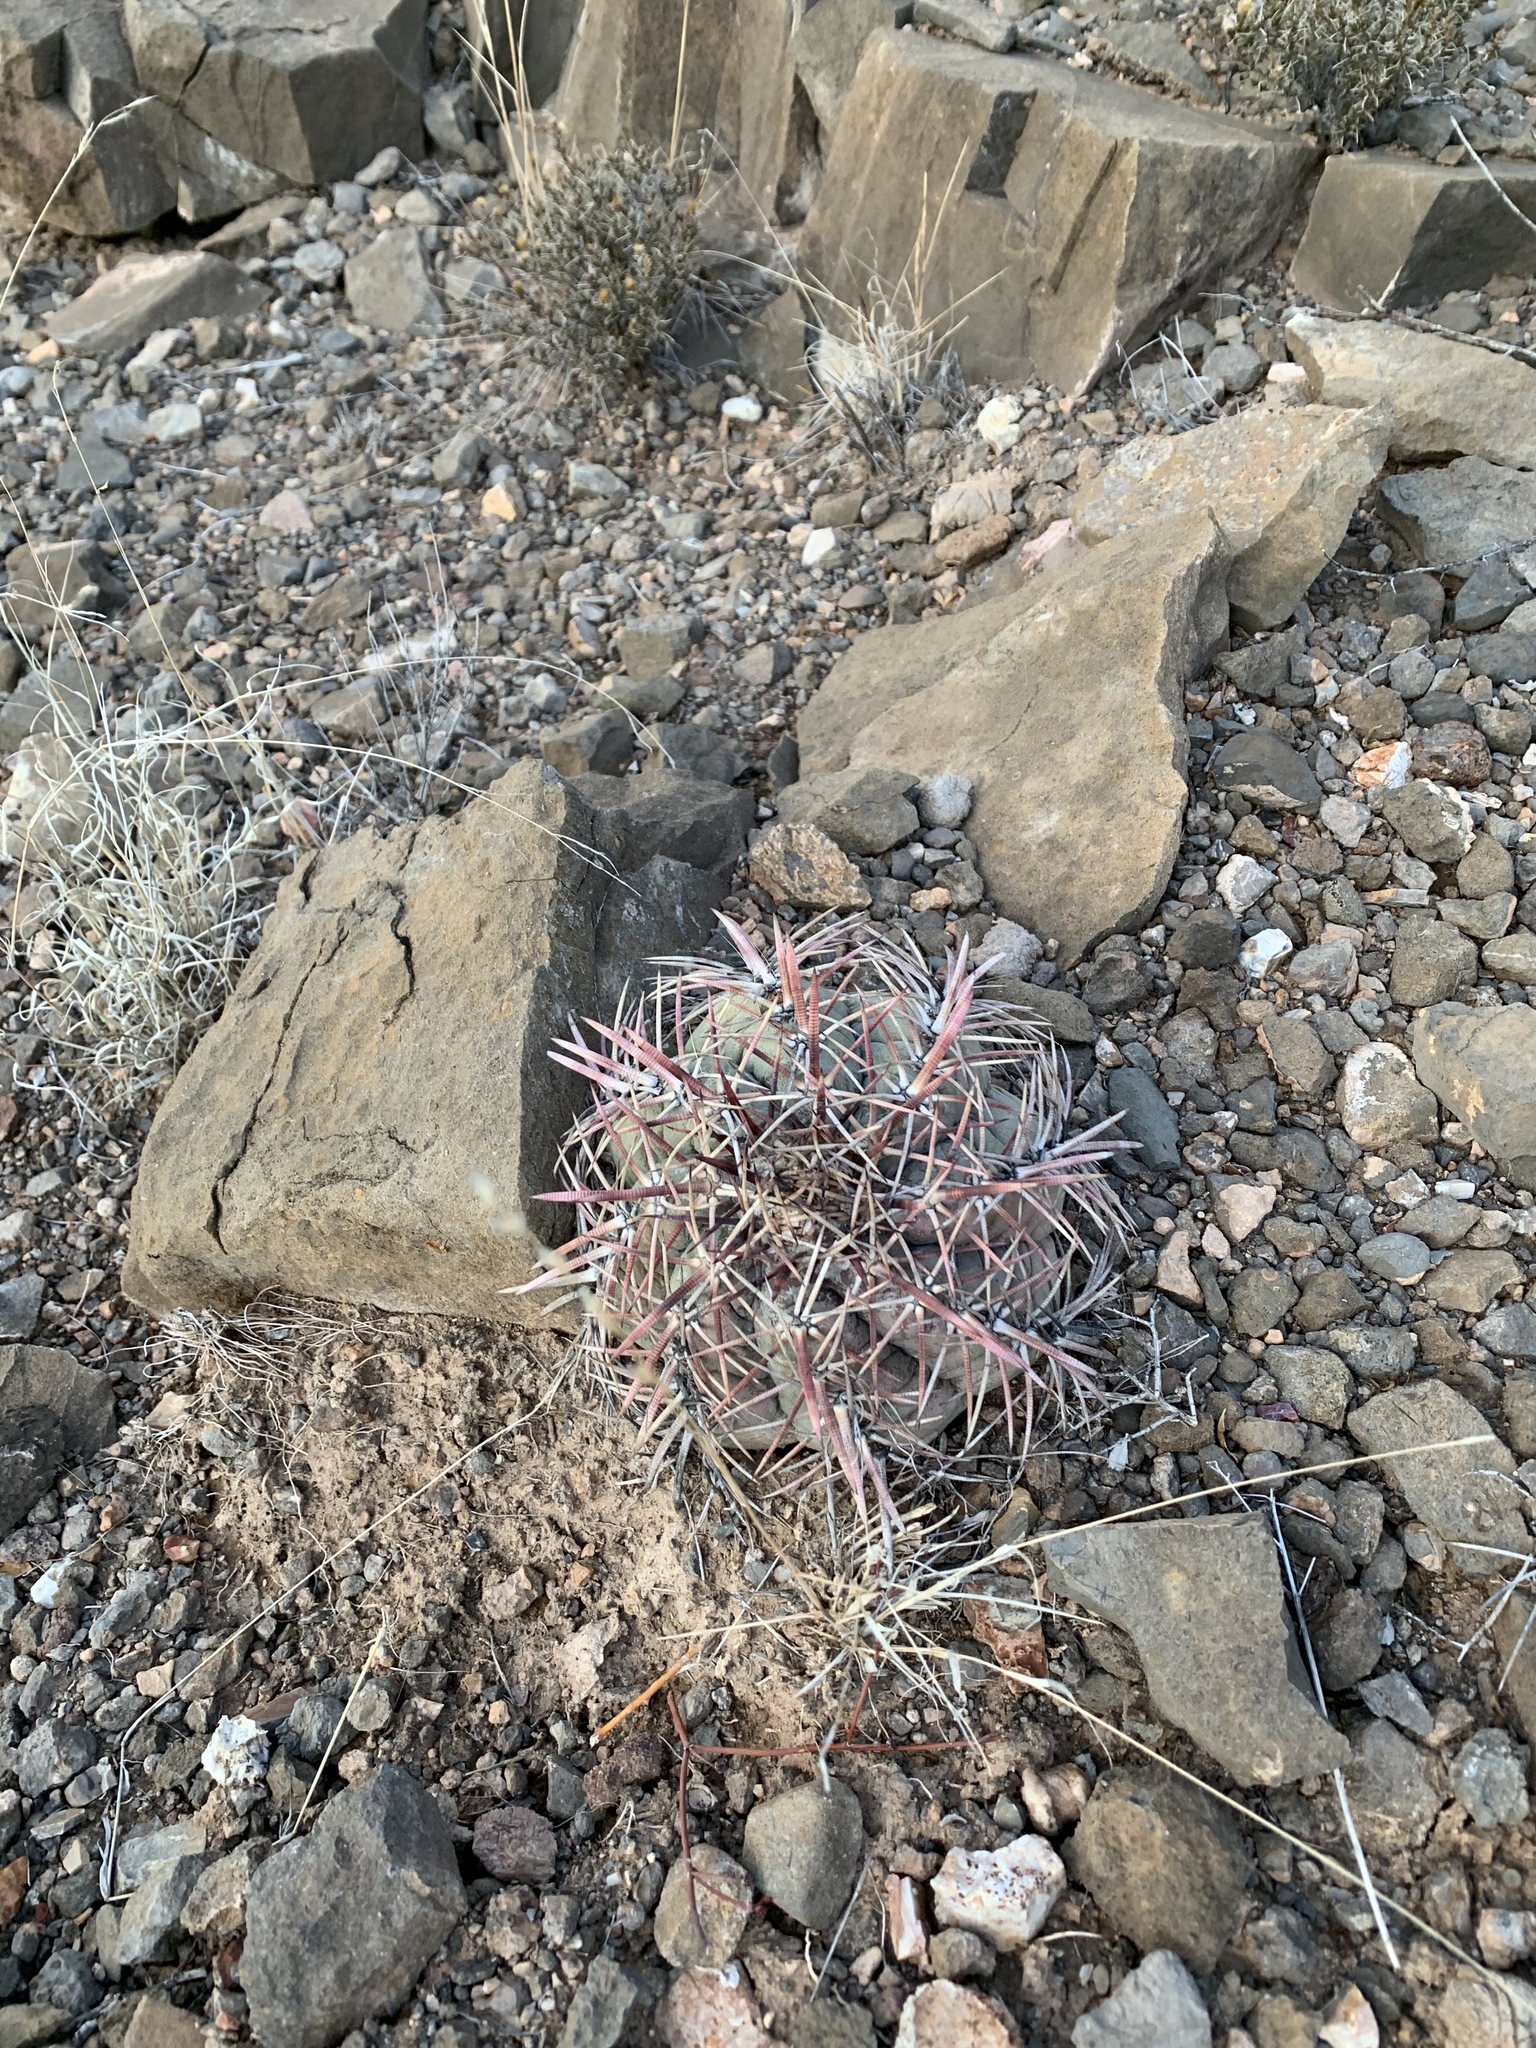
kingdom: Plantae
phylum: Tracheophyta
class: Magnoliopsida
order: Caryophyllales
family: Cactaceae
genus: Echinocactus
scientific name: Echinocactus horizonthalonius
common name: Devilshead
